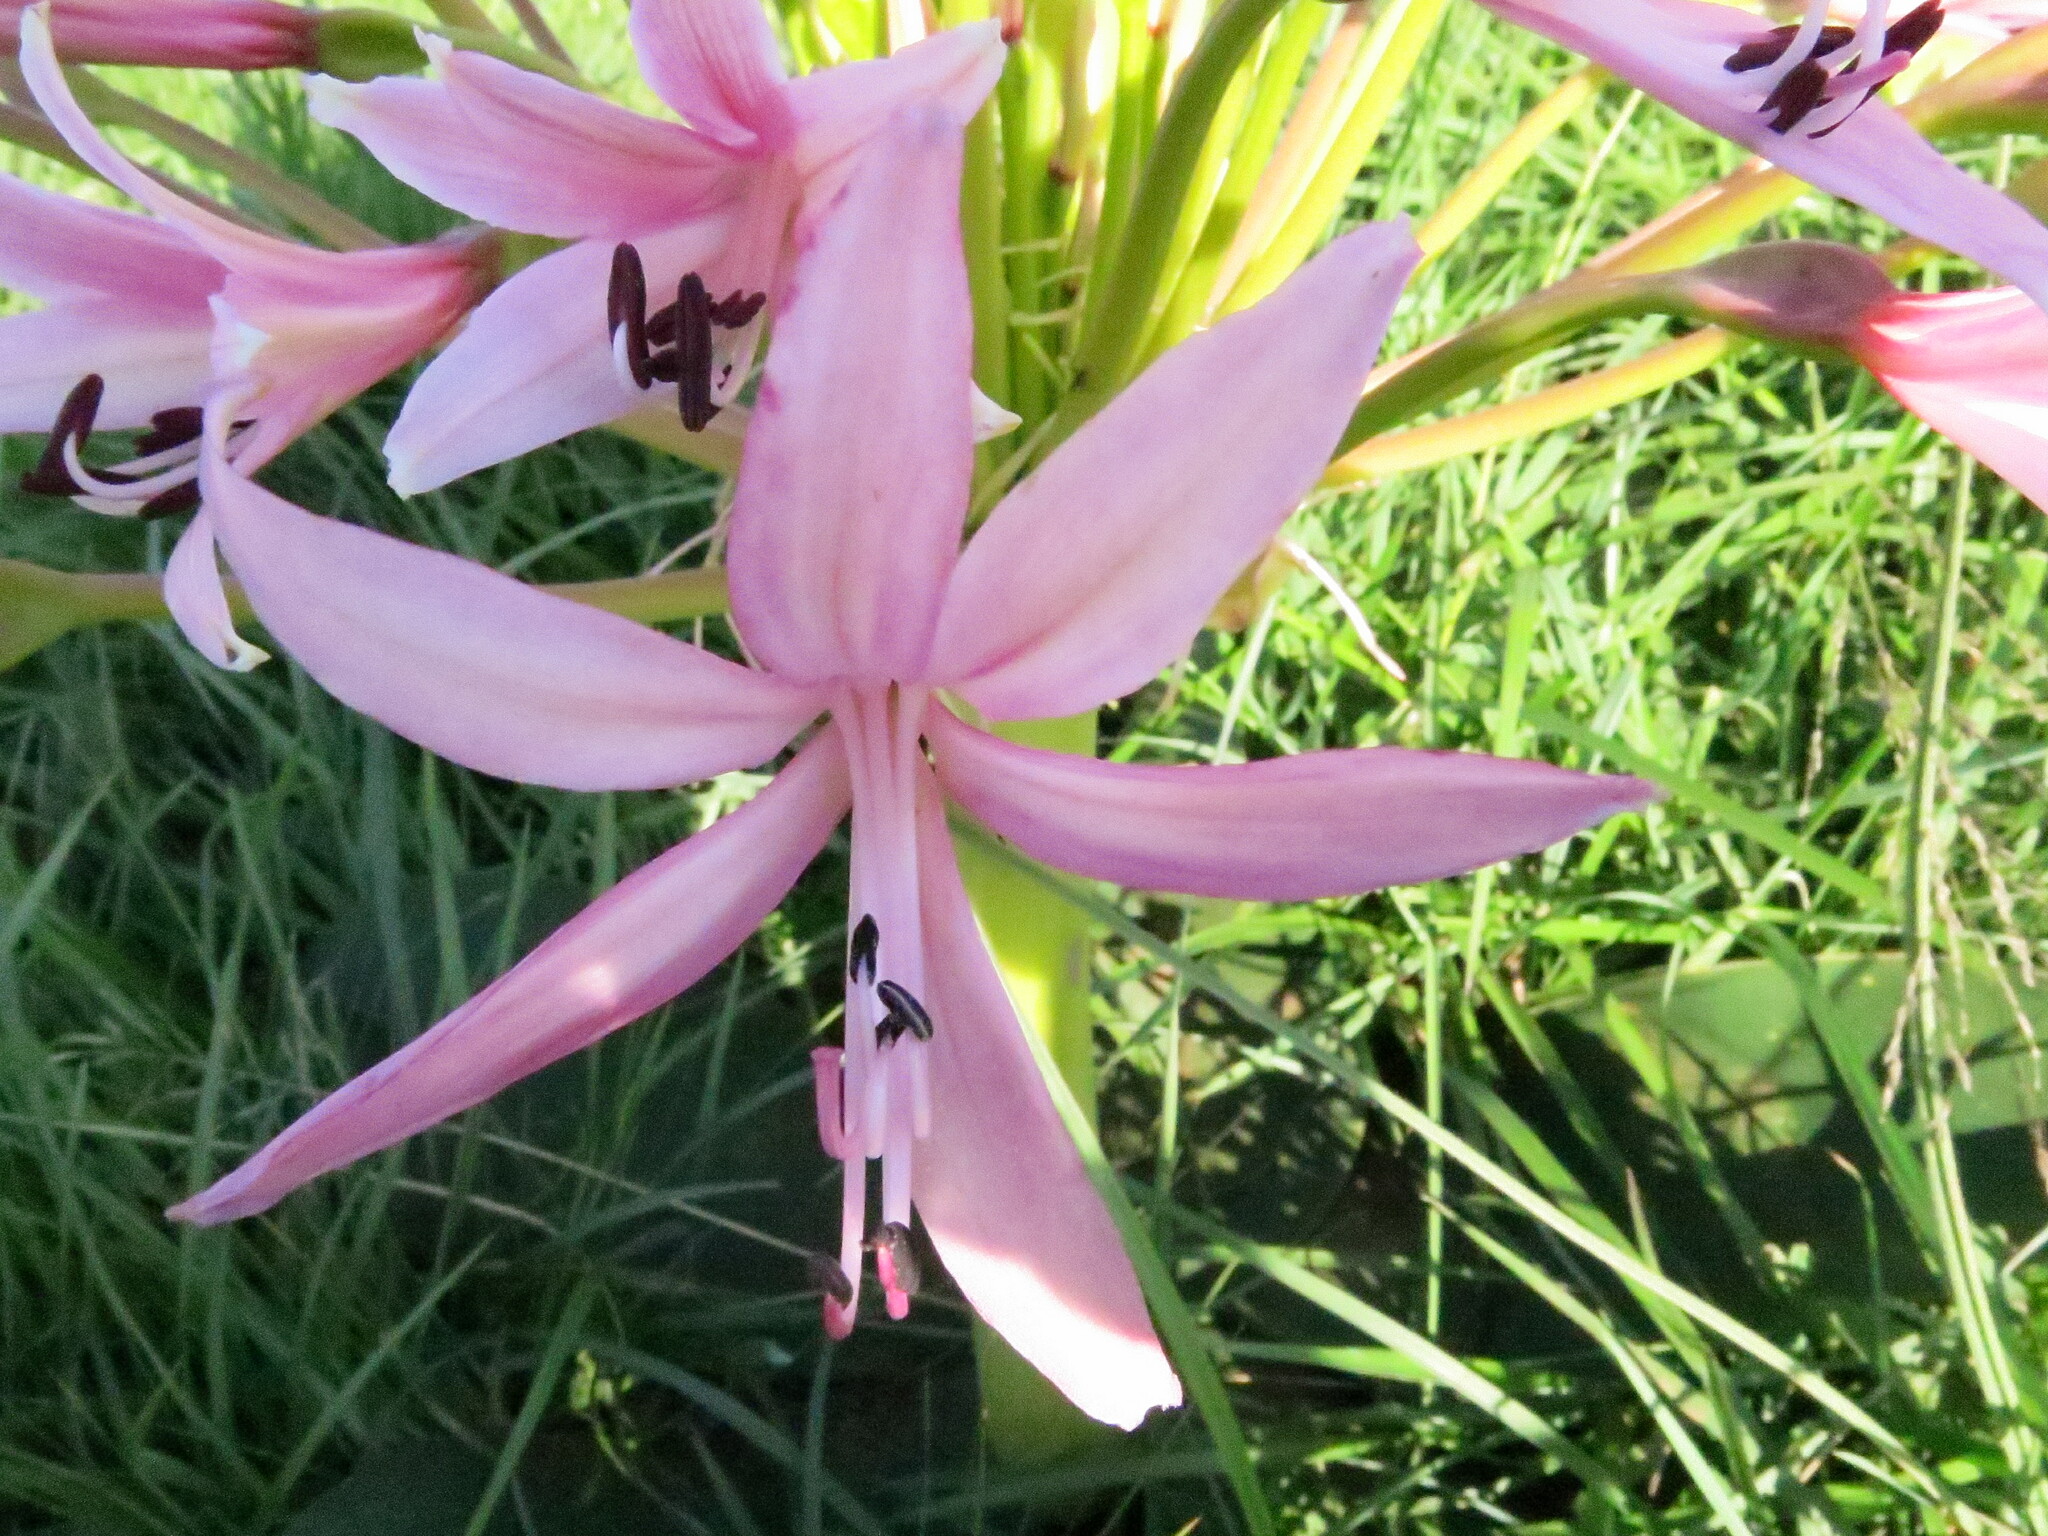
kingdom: Plantae
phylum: Tracheophyta
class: Liliopsida
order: Asparagales
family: Amaryllidaceae
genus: Brunsvigia
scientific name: Brunsvigia radulosa
